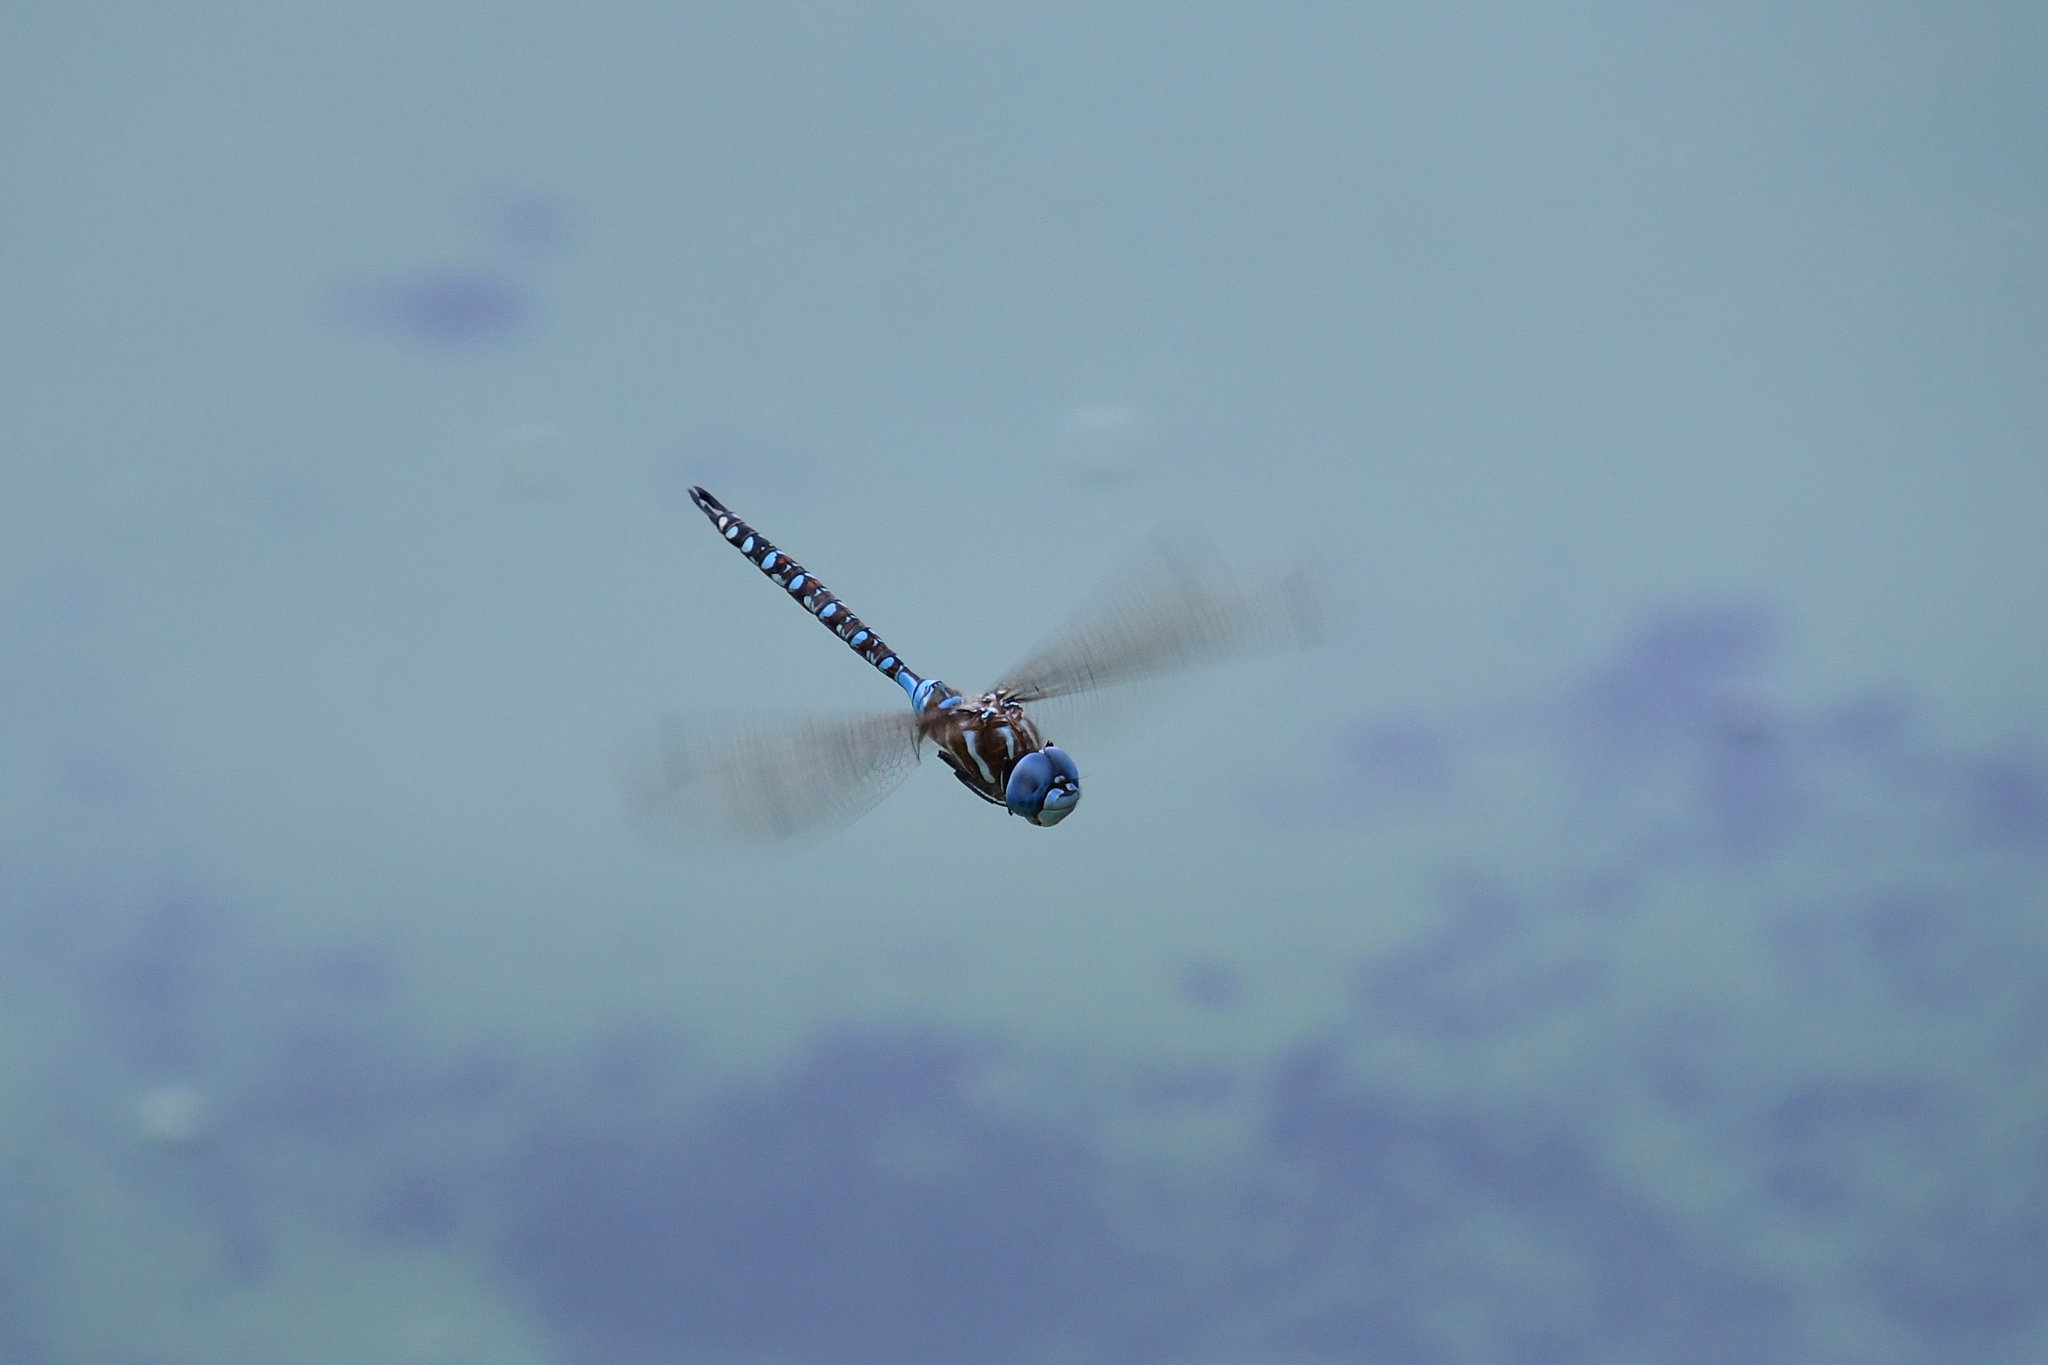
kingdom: Animalia
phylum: Arthropoda
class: Insecta
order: Odonata
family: Aeshnidae
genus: Rhionaeschna
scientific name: Rhionaeschna multicolor
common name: Blue-eyed darner
